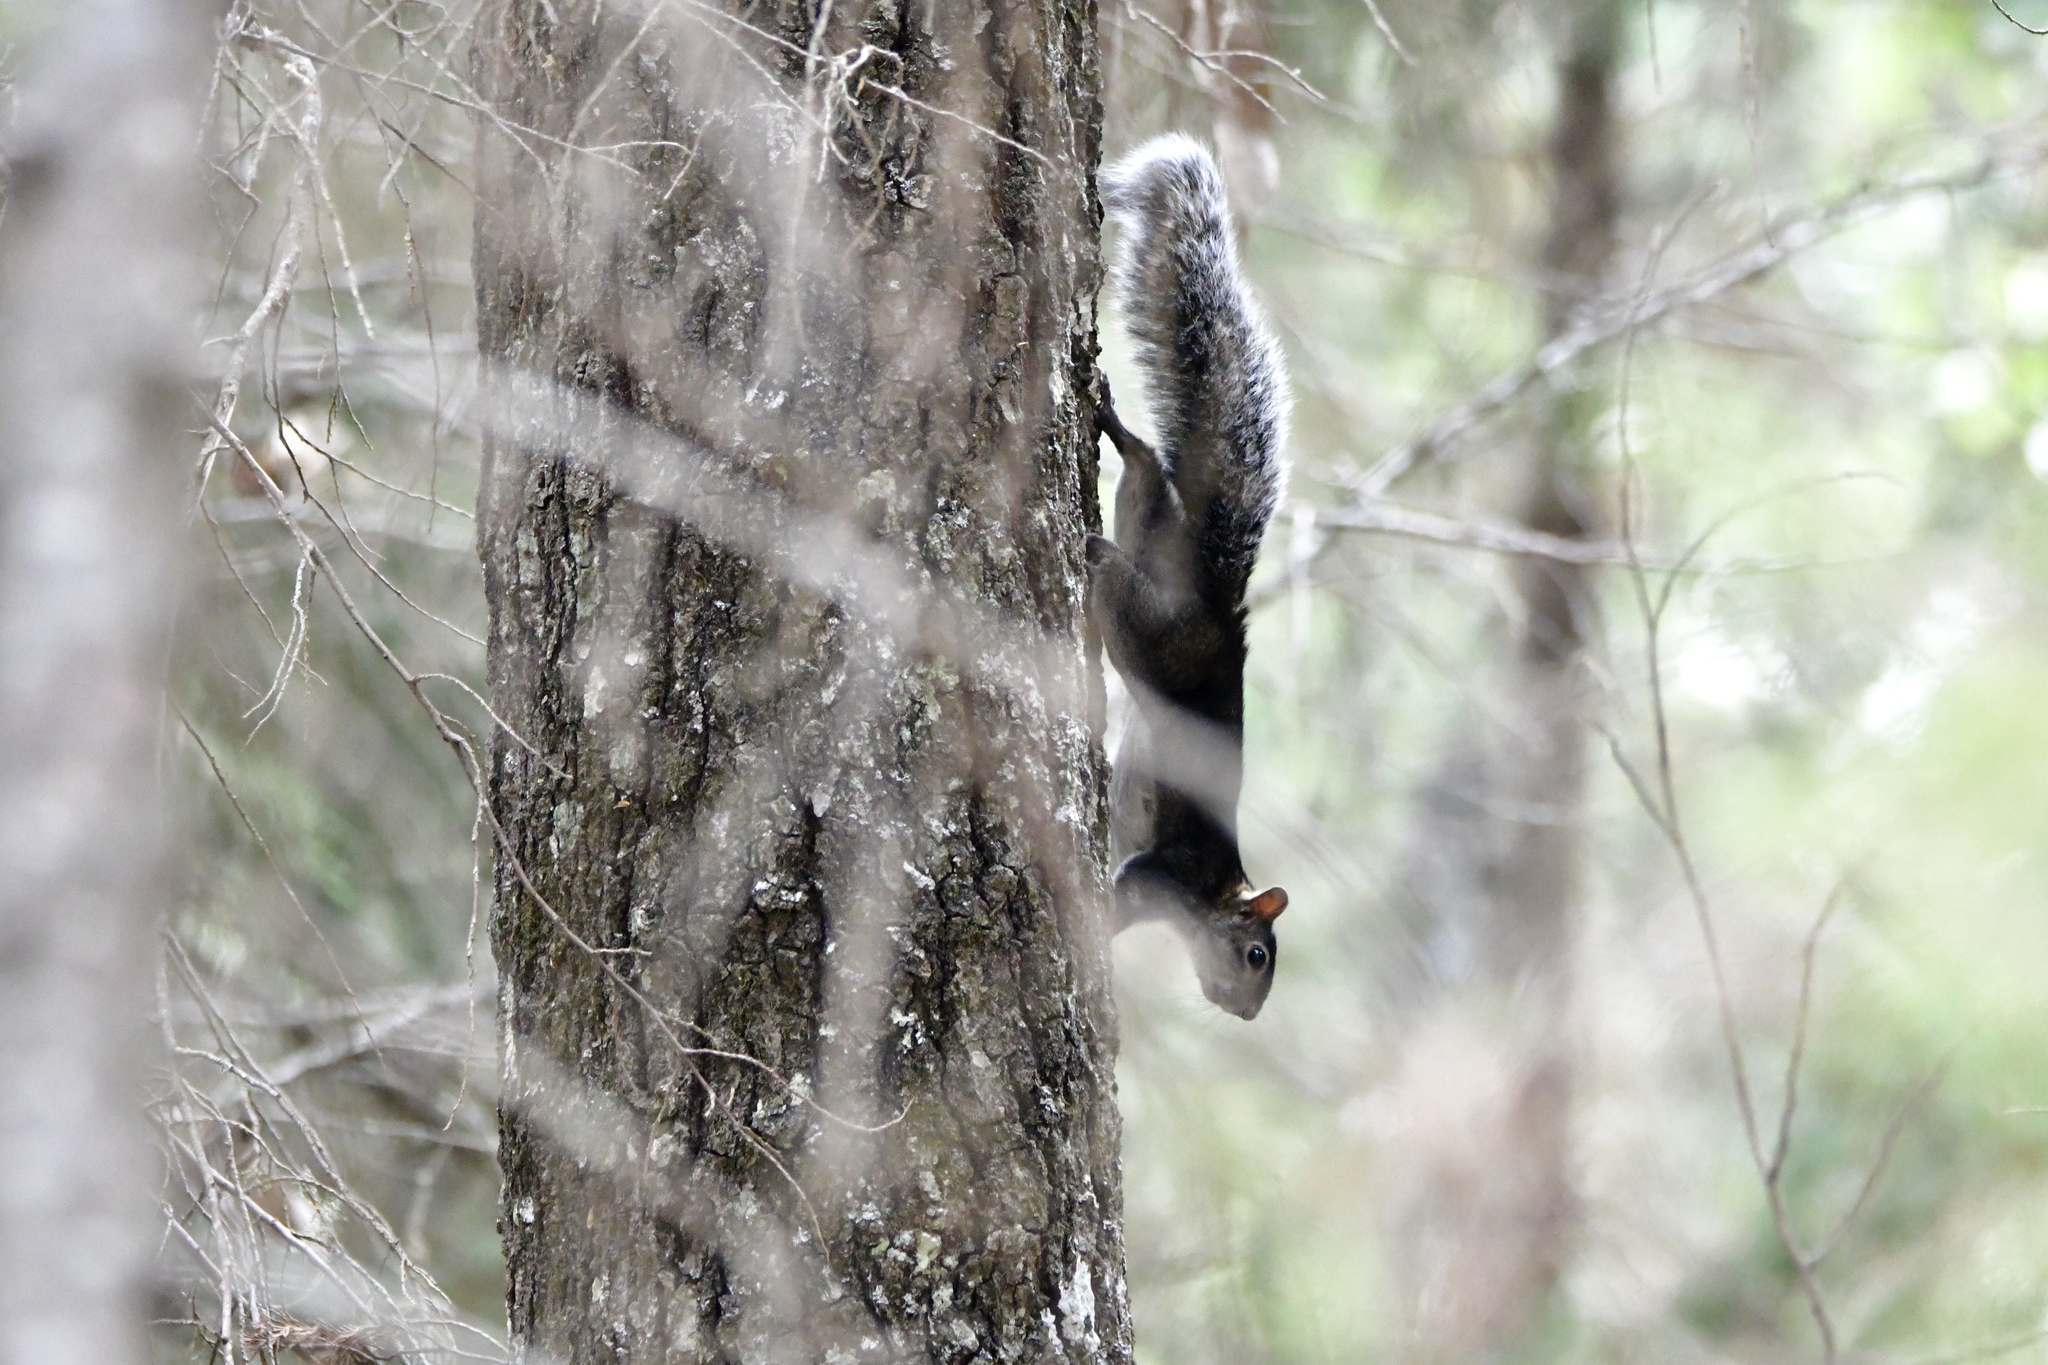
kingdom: Animalia
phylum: Chordata
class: Mammalia
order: Rodentia
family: Sciuridae
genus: Sciurus
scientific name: Sciurus colliaei
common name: Collie's squirrel
